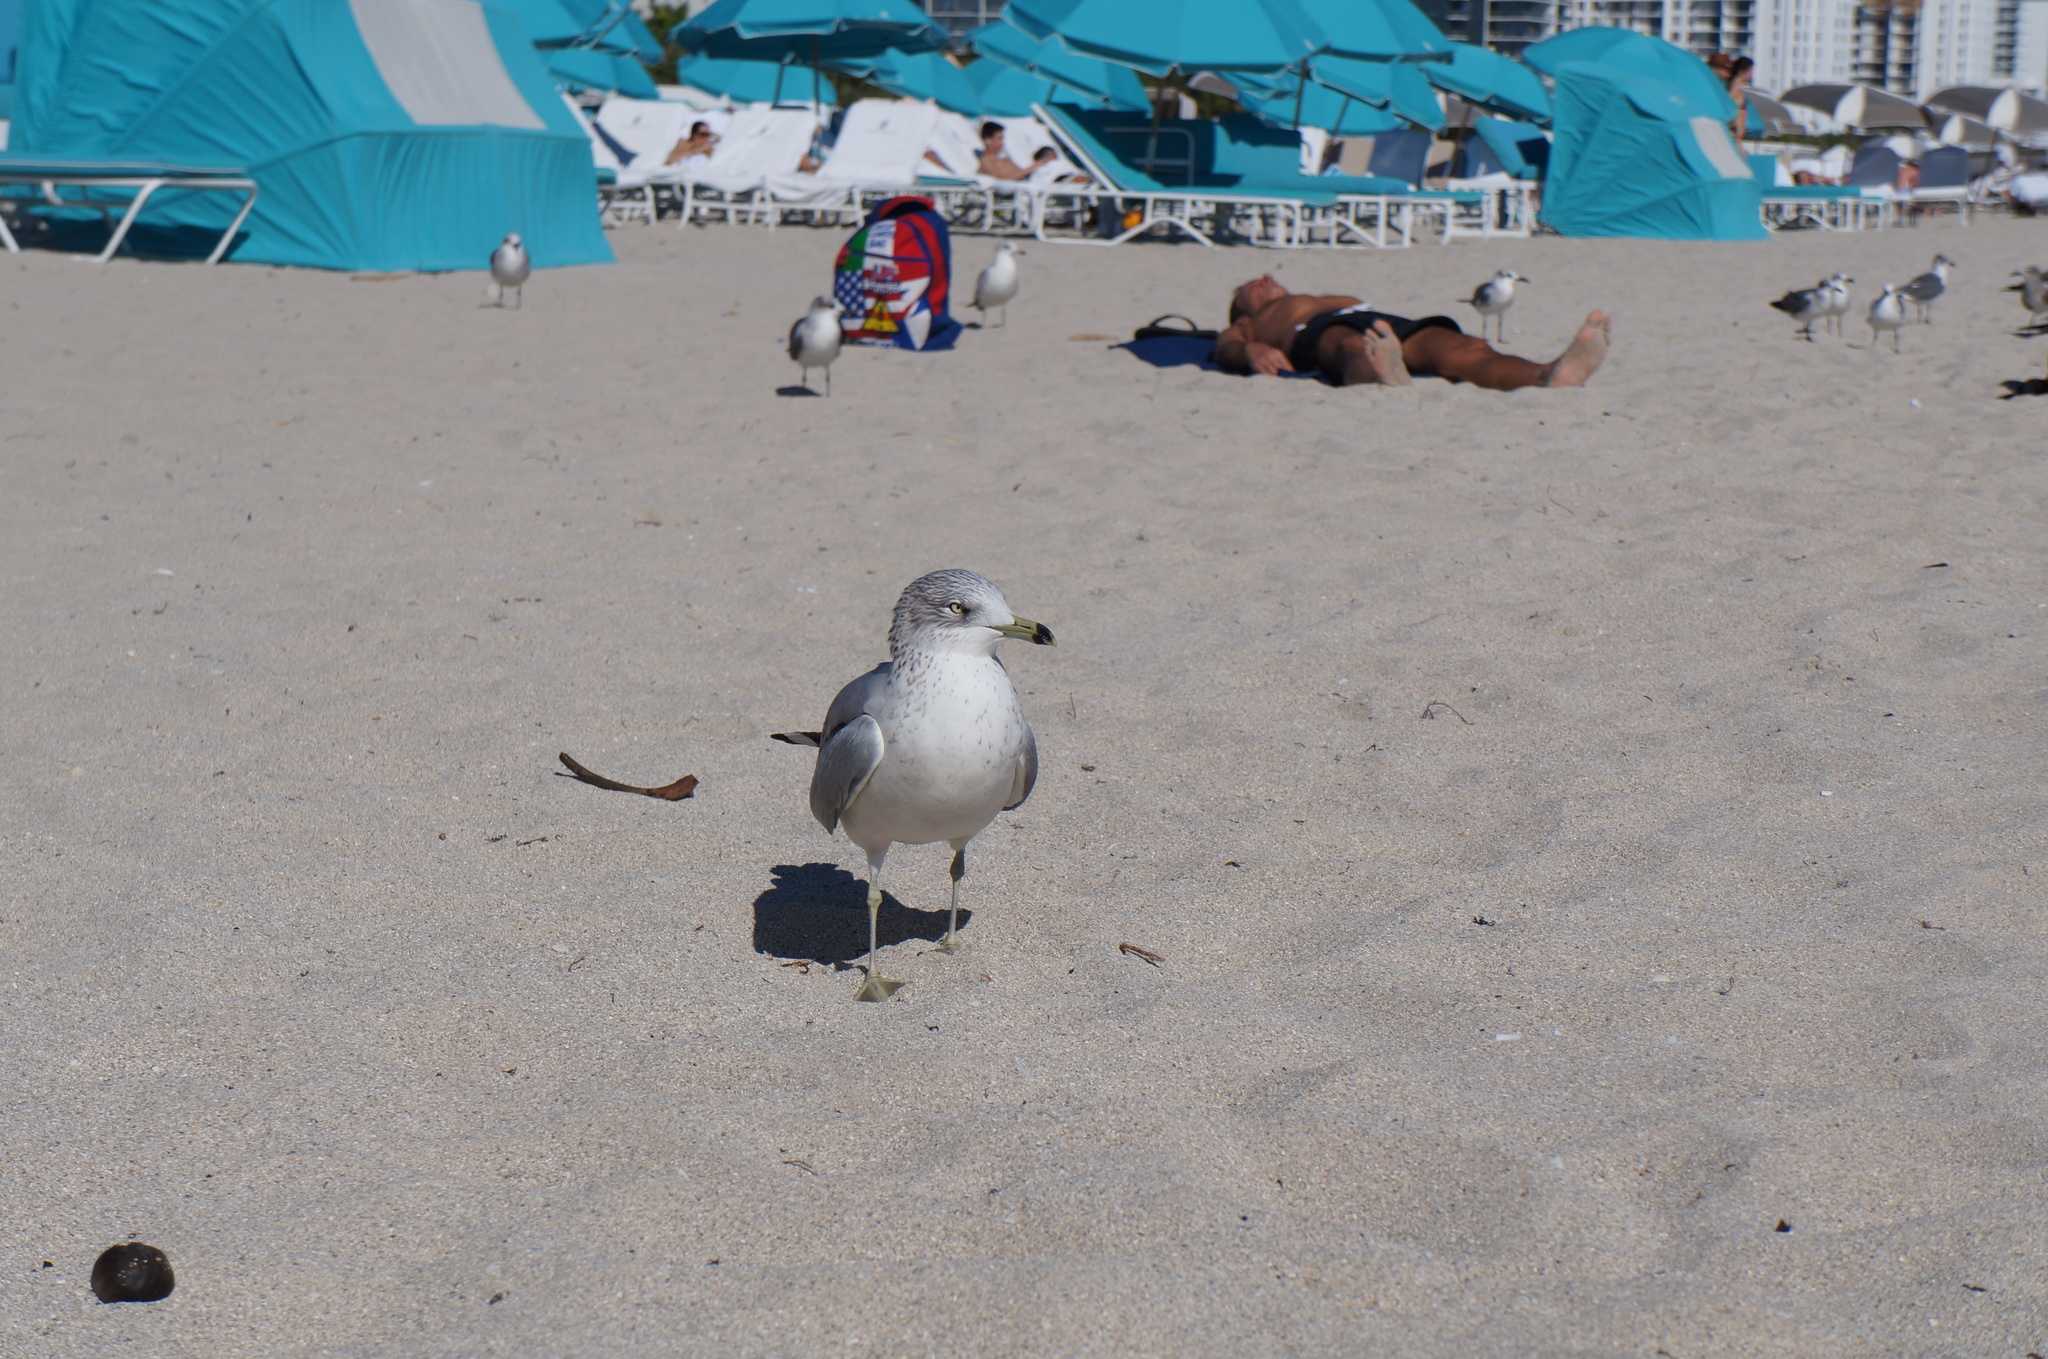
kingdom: Animalia
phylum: Chordata
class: Aves
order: Charadriiformes
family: Laridae
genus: Larus
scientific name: Larus delawarensis
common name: Ring-billed gull
